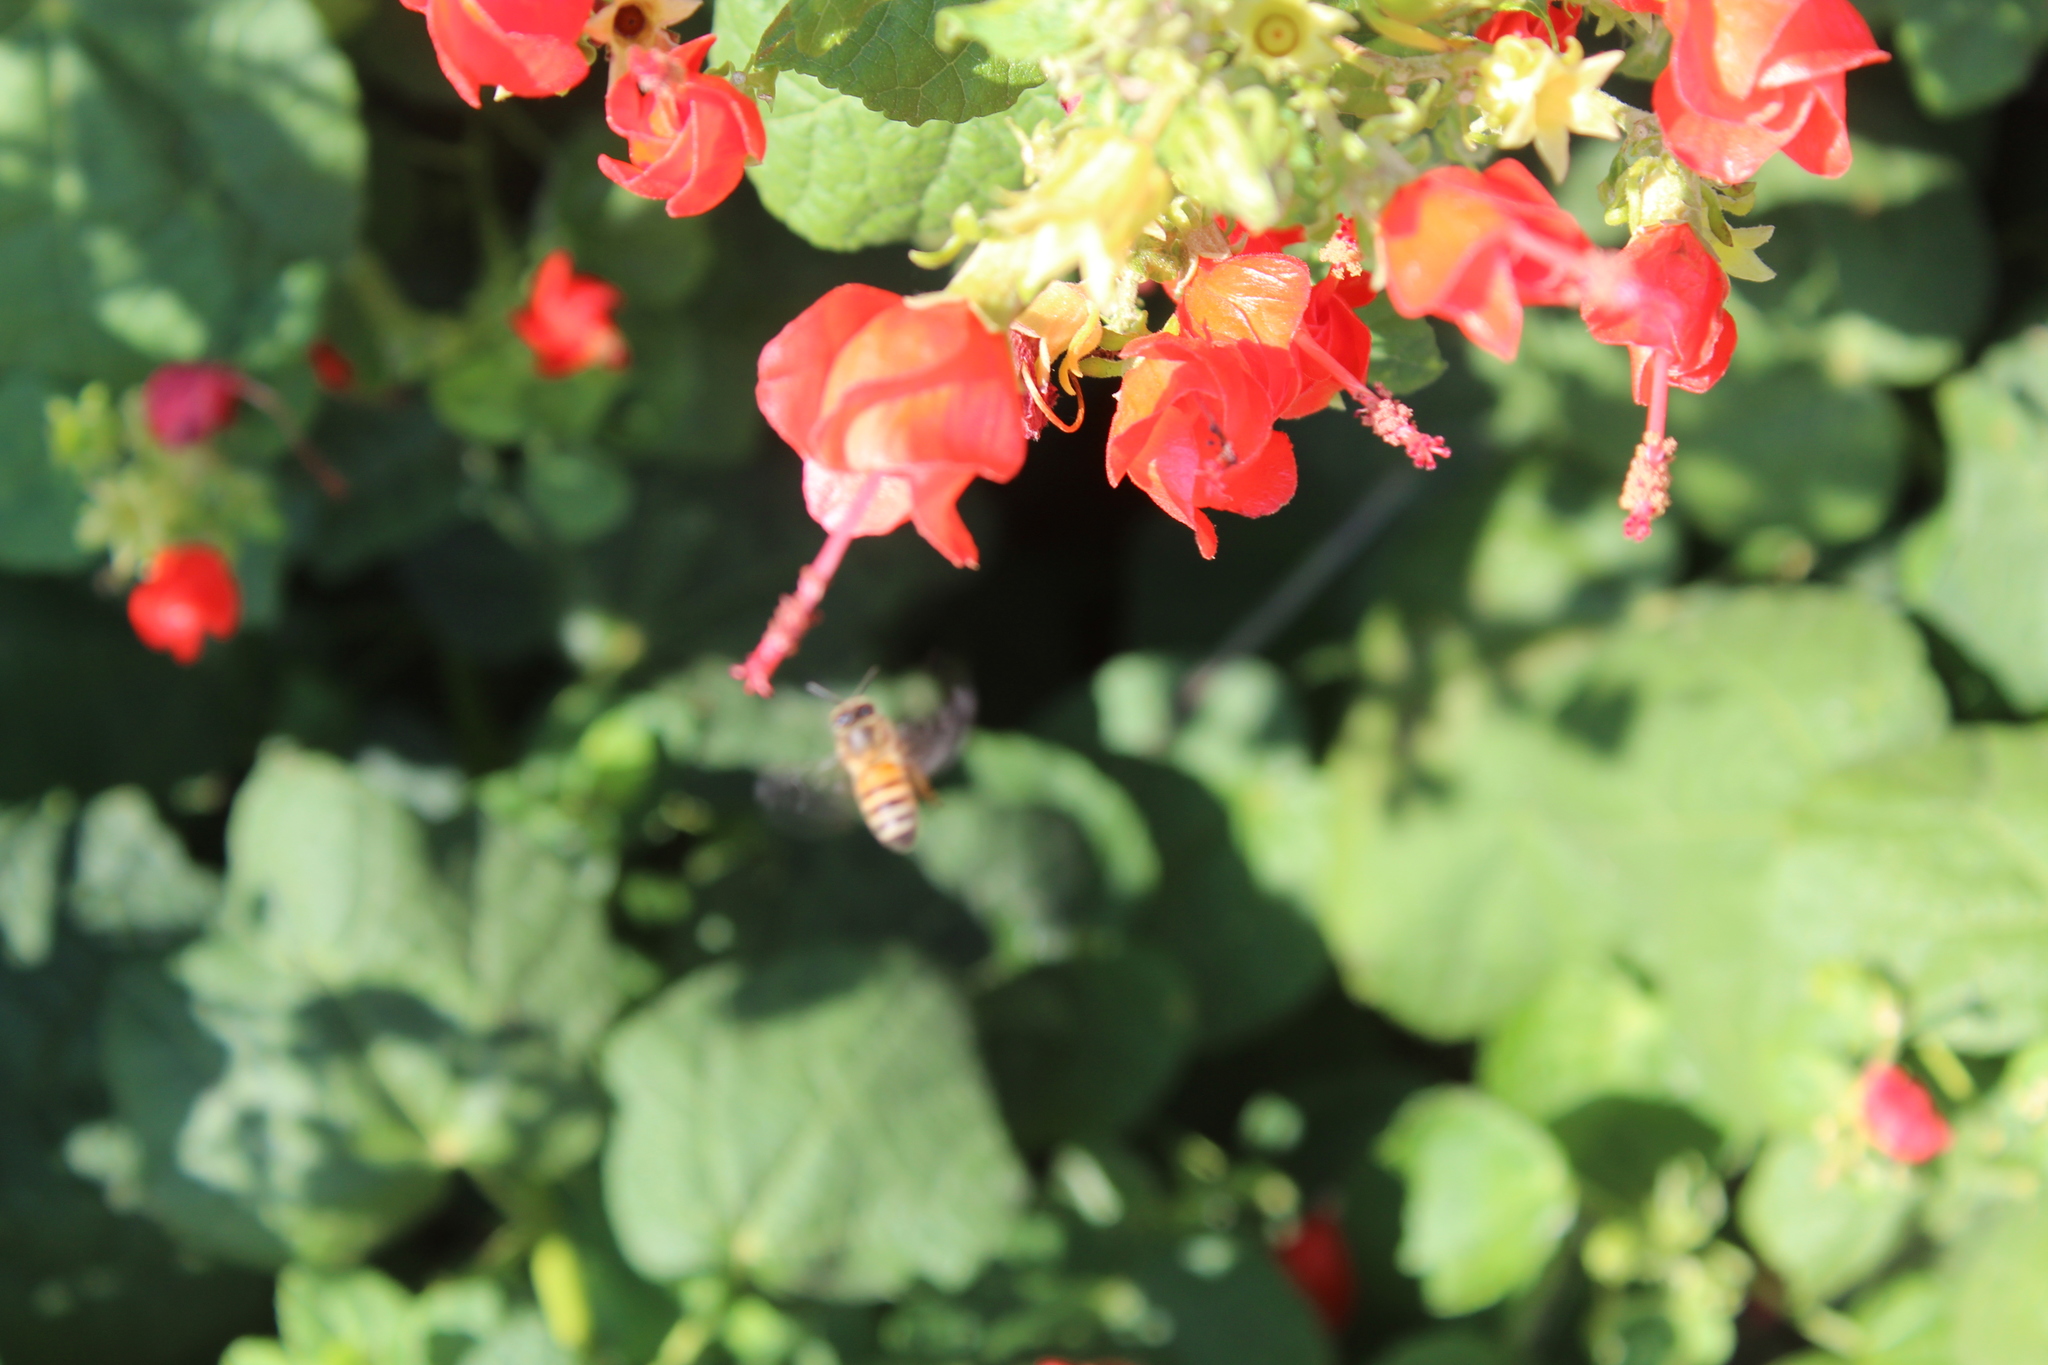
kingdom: Animalia
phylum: Arthropoda
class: Insecta
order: Hymenoptera
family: Apidae
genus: Apis
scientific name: Apis mellifera
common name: Honey bee
